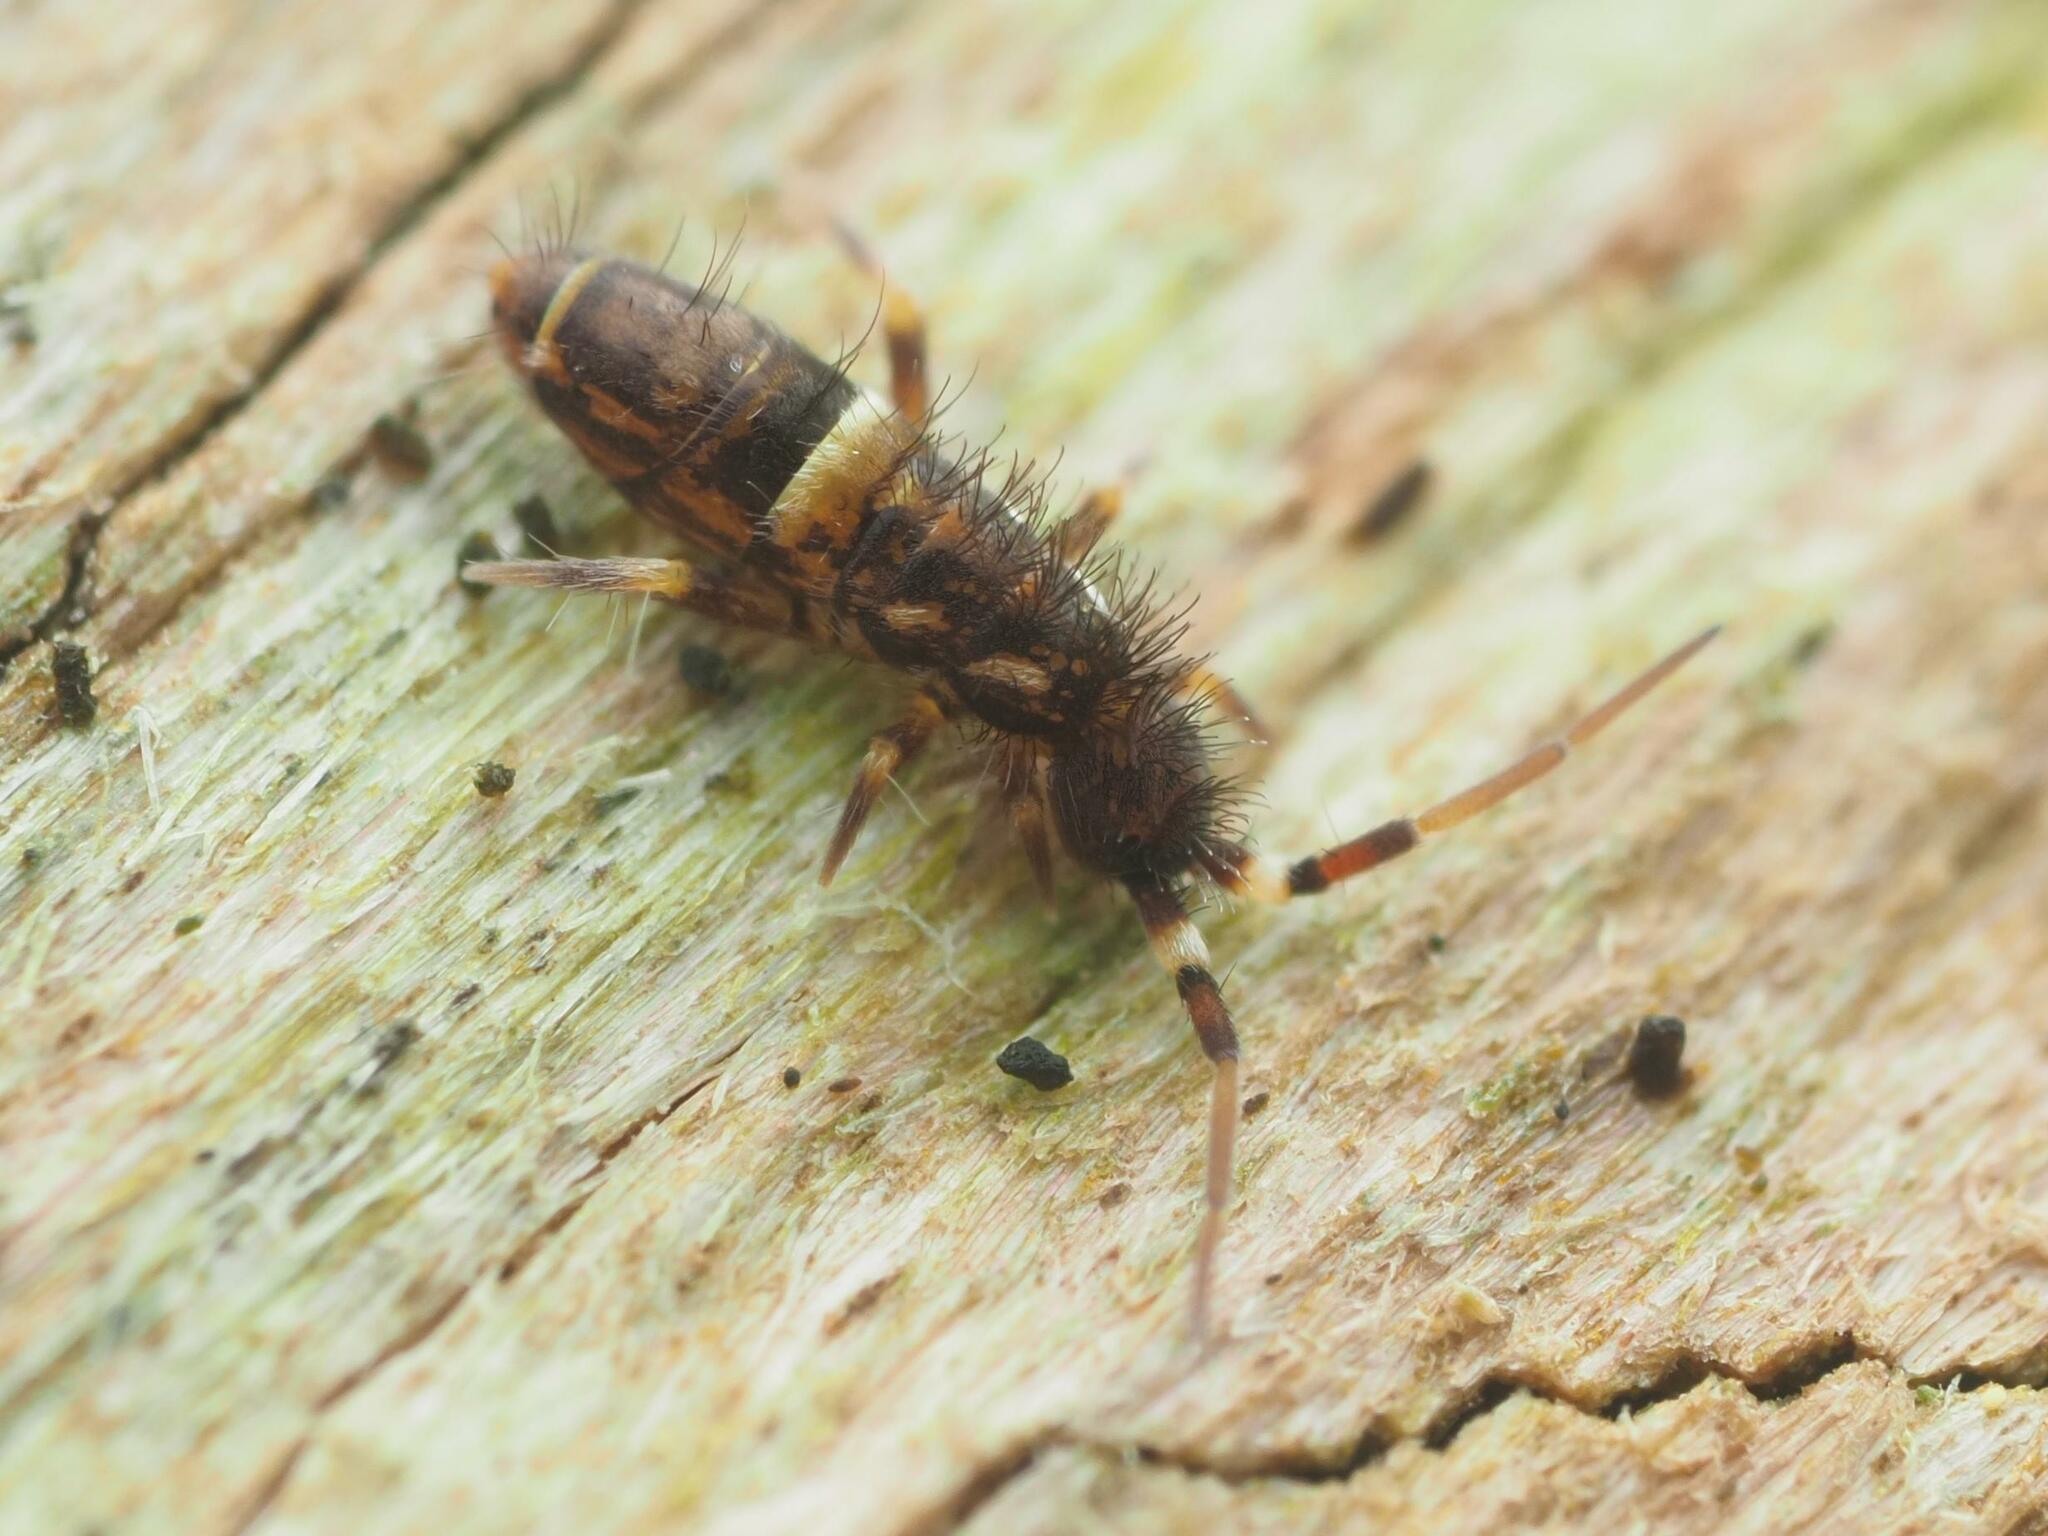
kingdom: Animalia
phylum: Arthropoda
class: Collembola
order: Entomobryomorpha
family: Orchesellidae
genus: Orchesella
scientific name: Orchesella cincta
